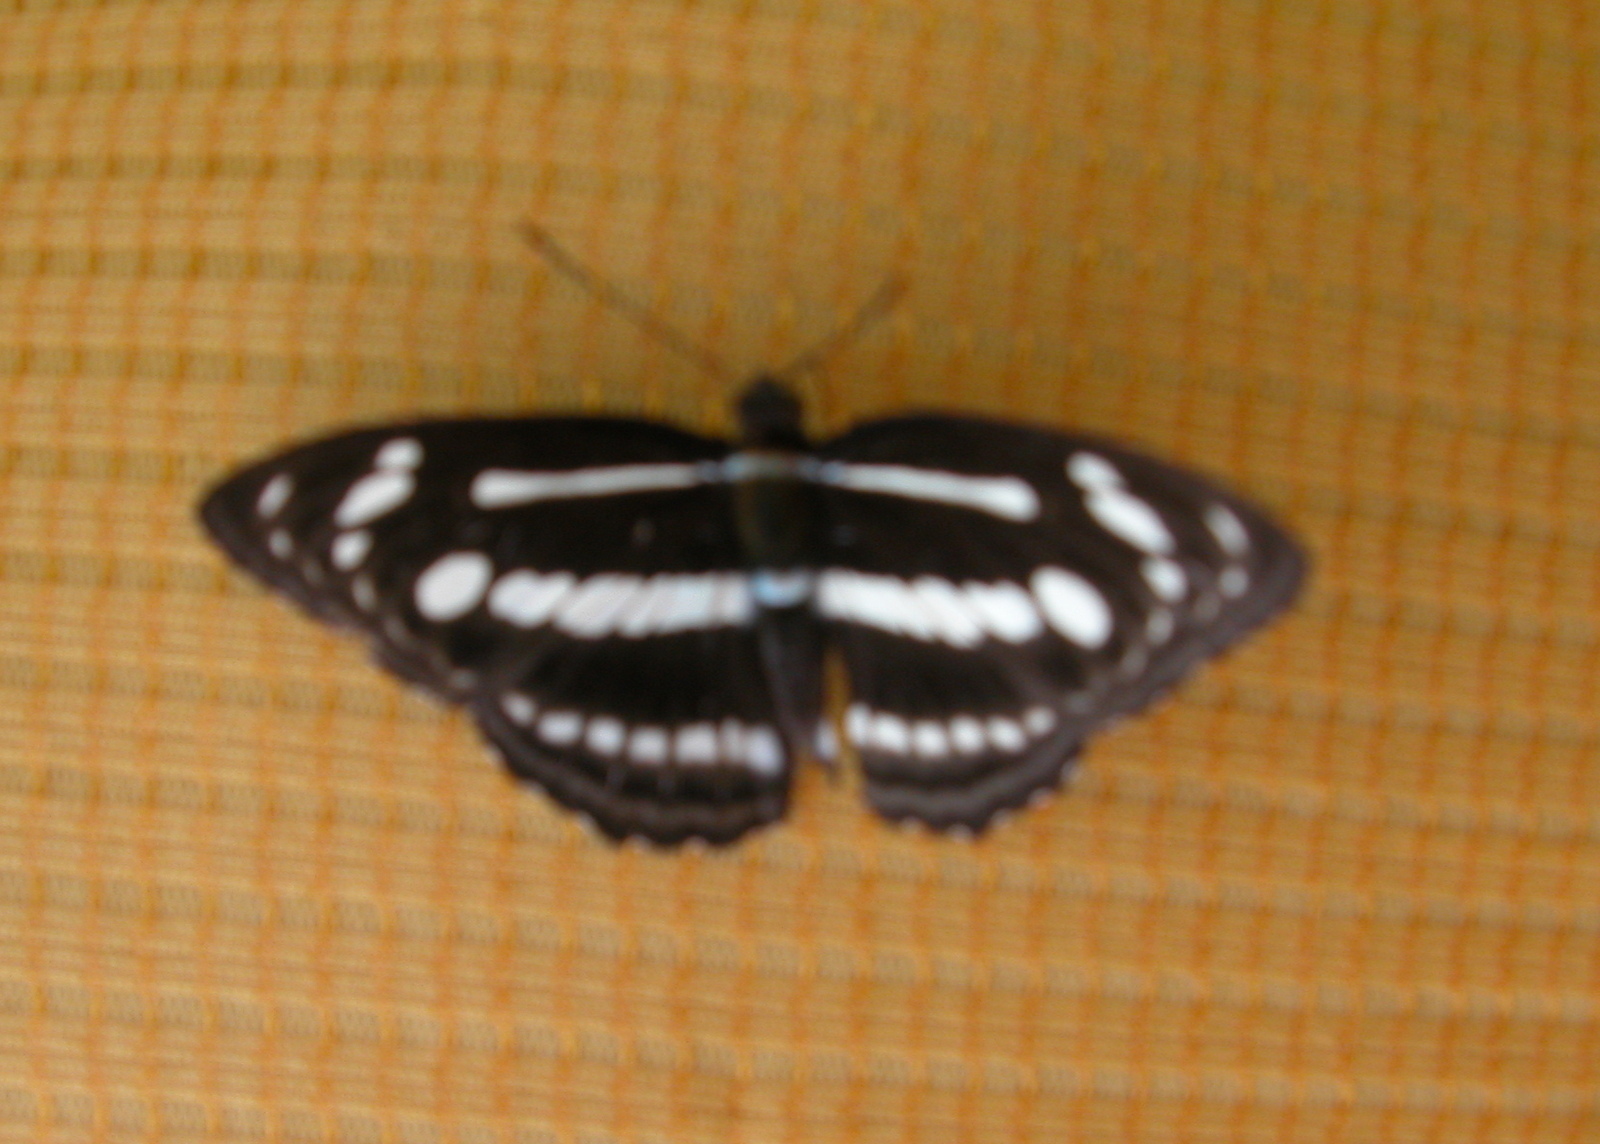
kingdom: Animalia
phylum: Arthropoda
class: Insecta
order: Lepidoptera
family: Nymphalidae
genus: Parathyma
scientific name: Parathyma pravara
